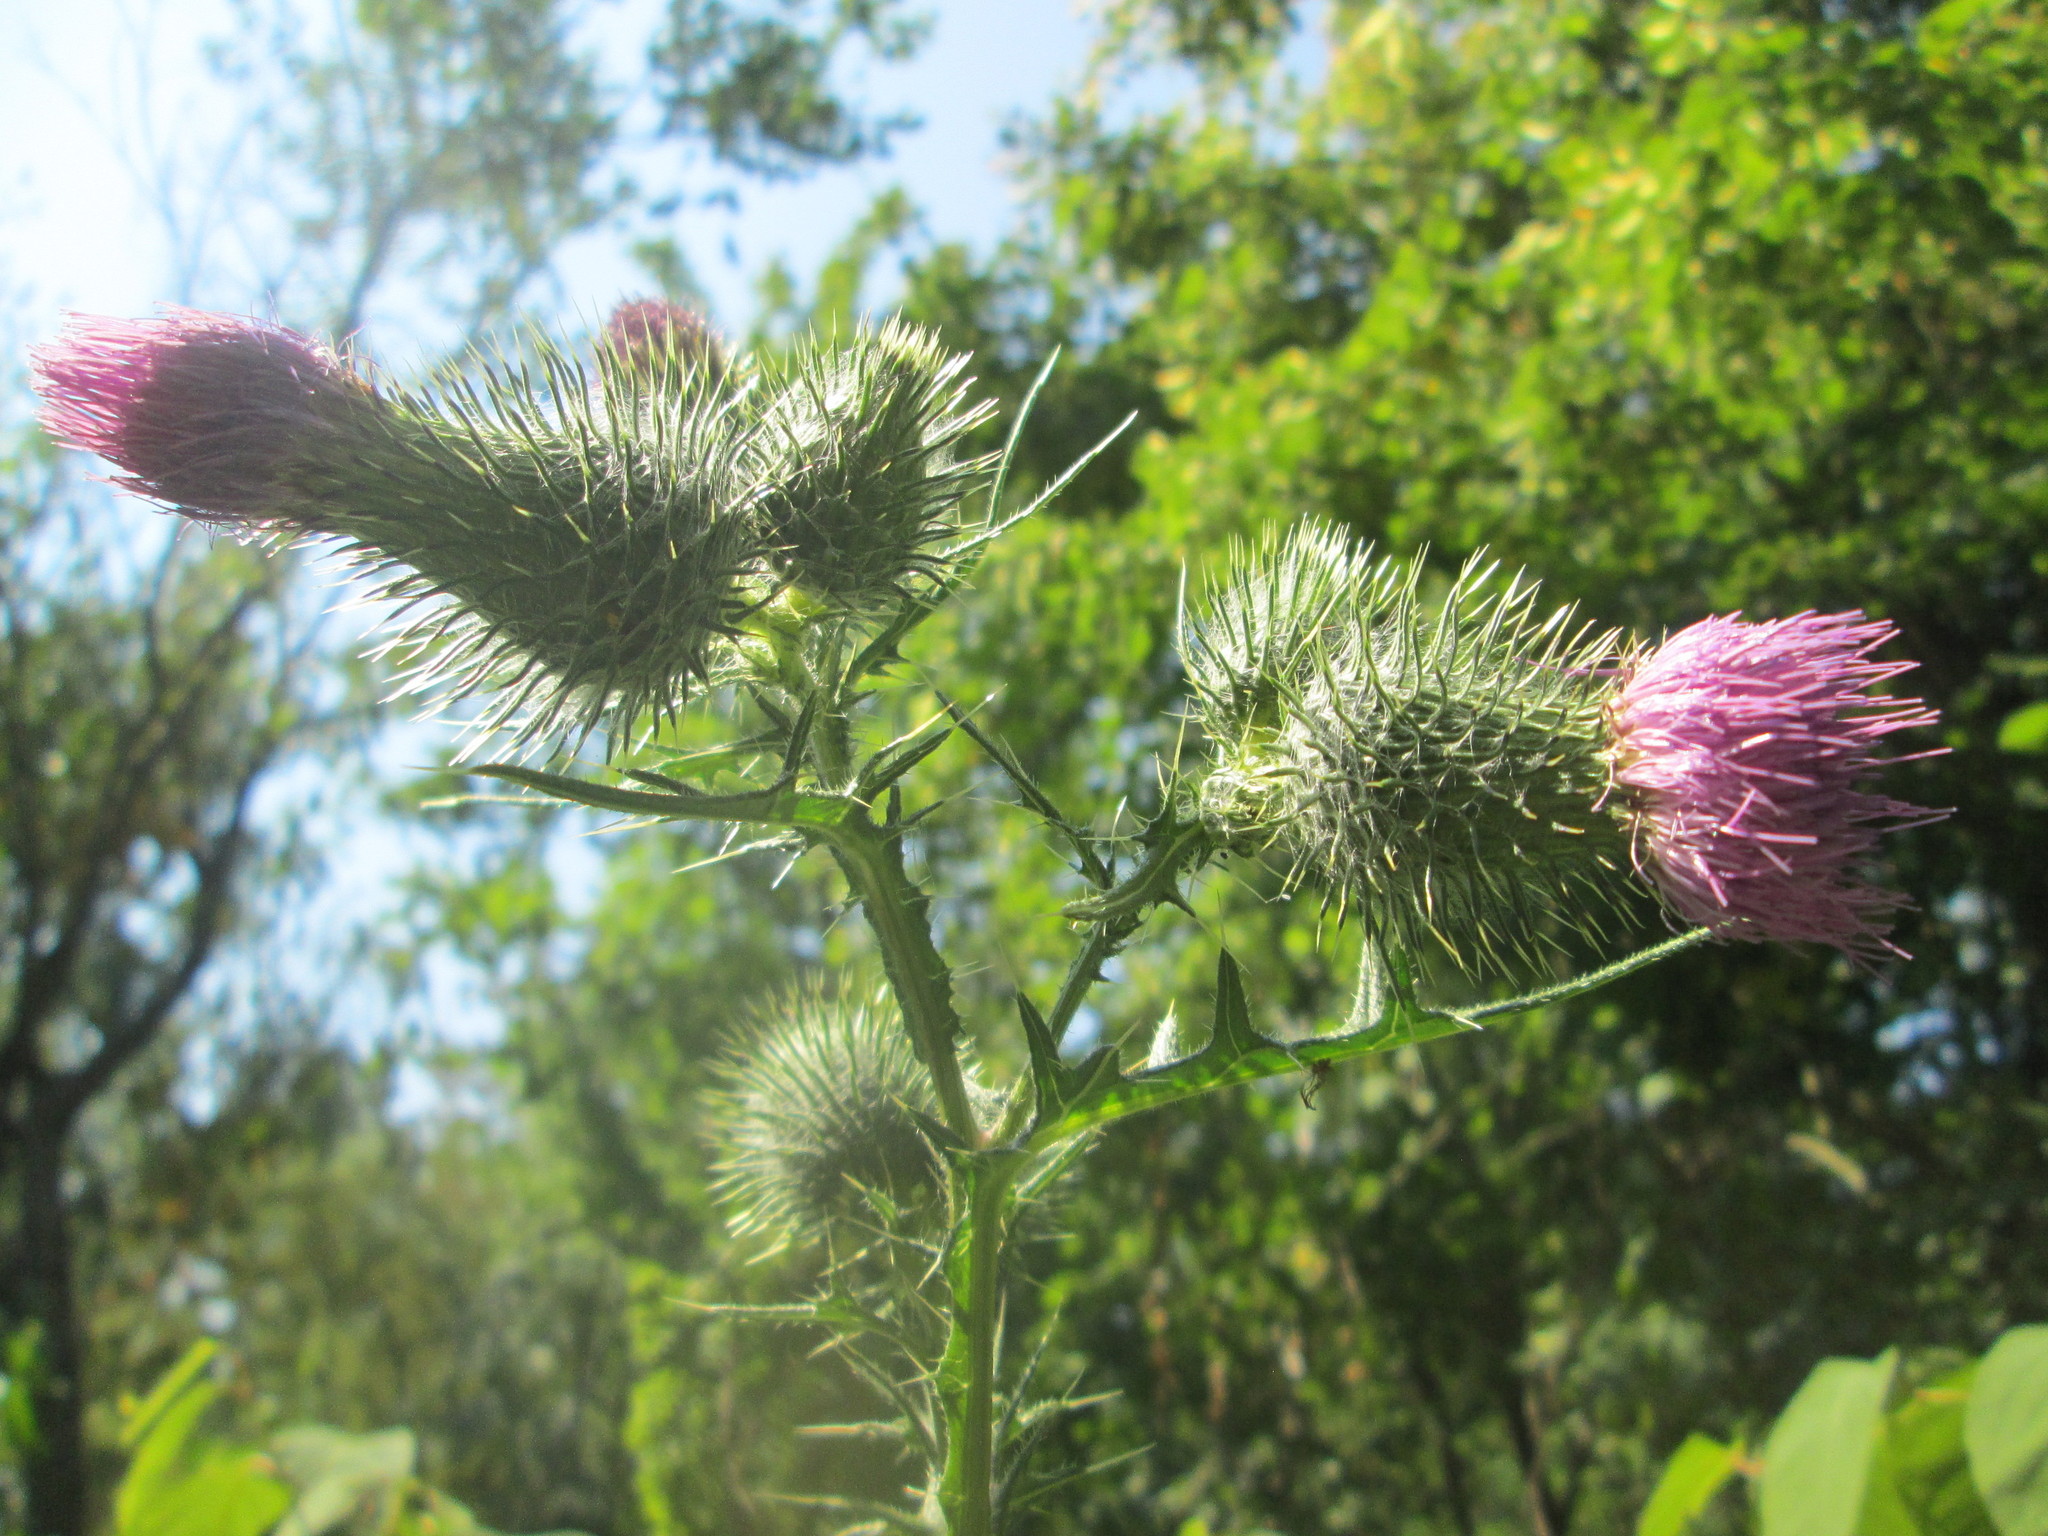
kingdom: Plantae
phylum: Tracheophyta
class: Magnoliopsida
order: Asterales
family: Asteraceae
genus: Cirsium
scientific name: Cirsium vulgare
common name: Bull thistle
